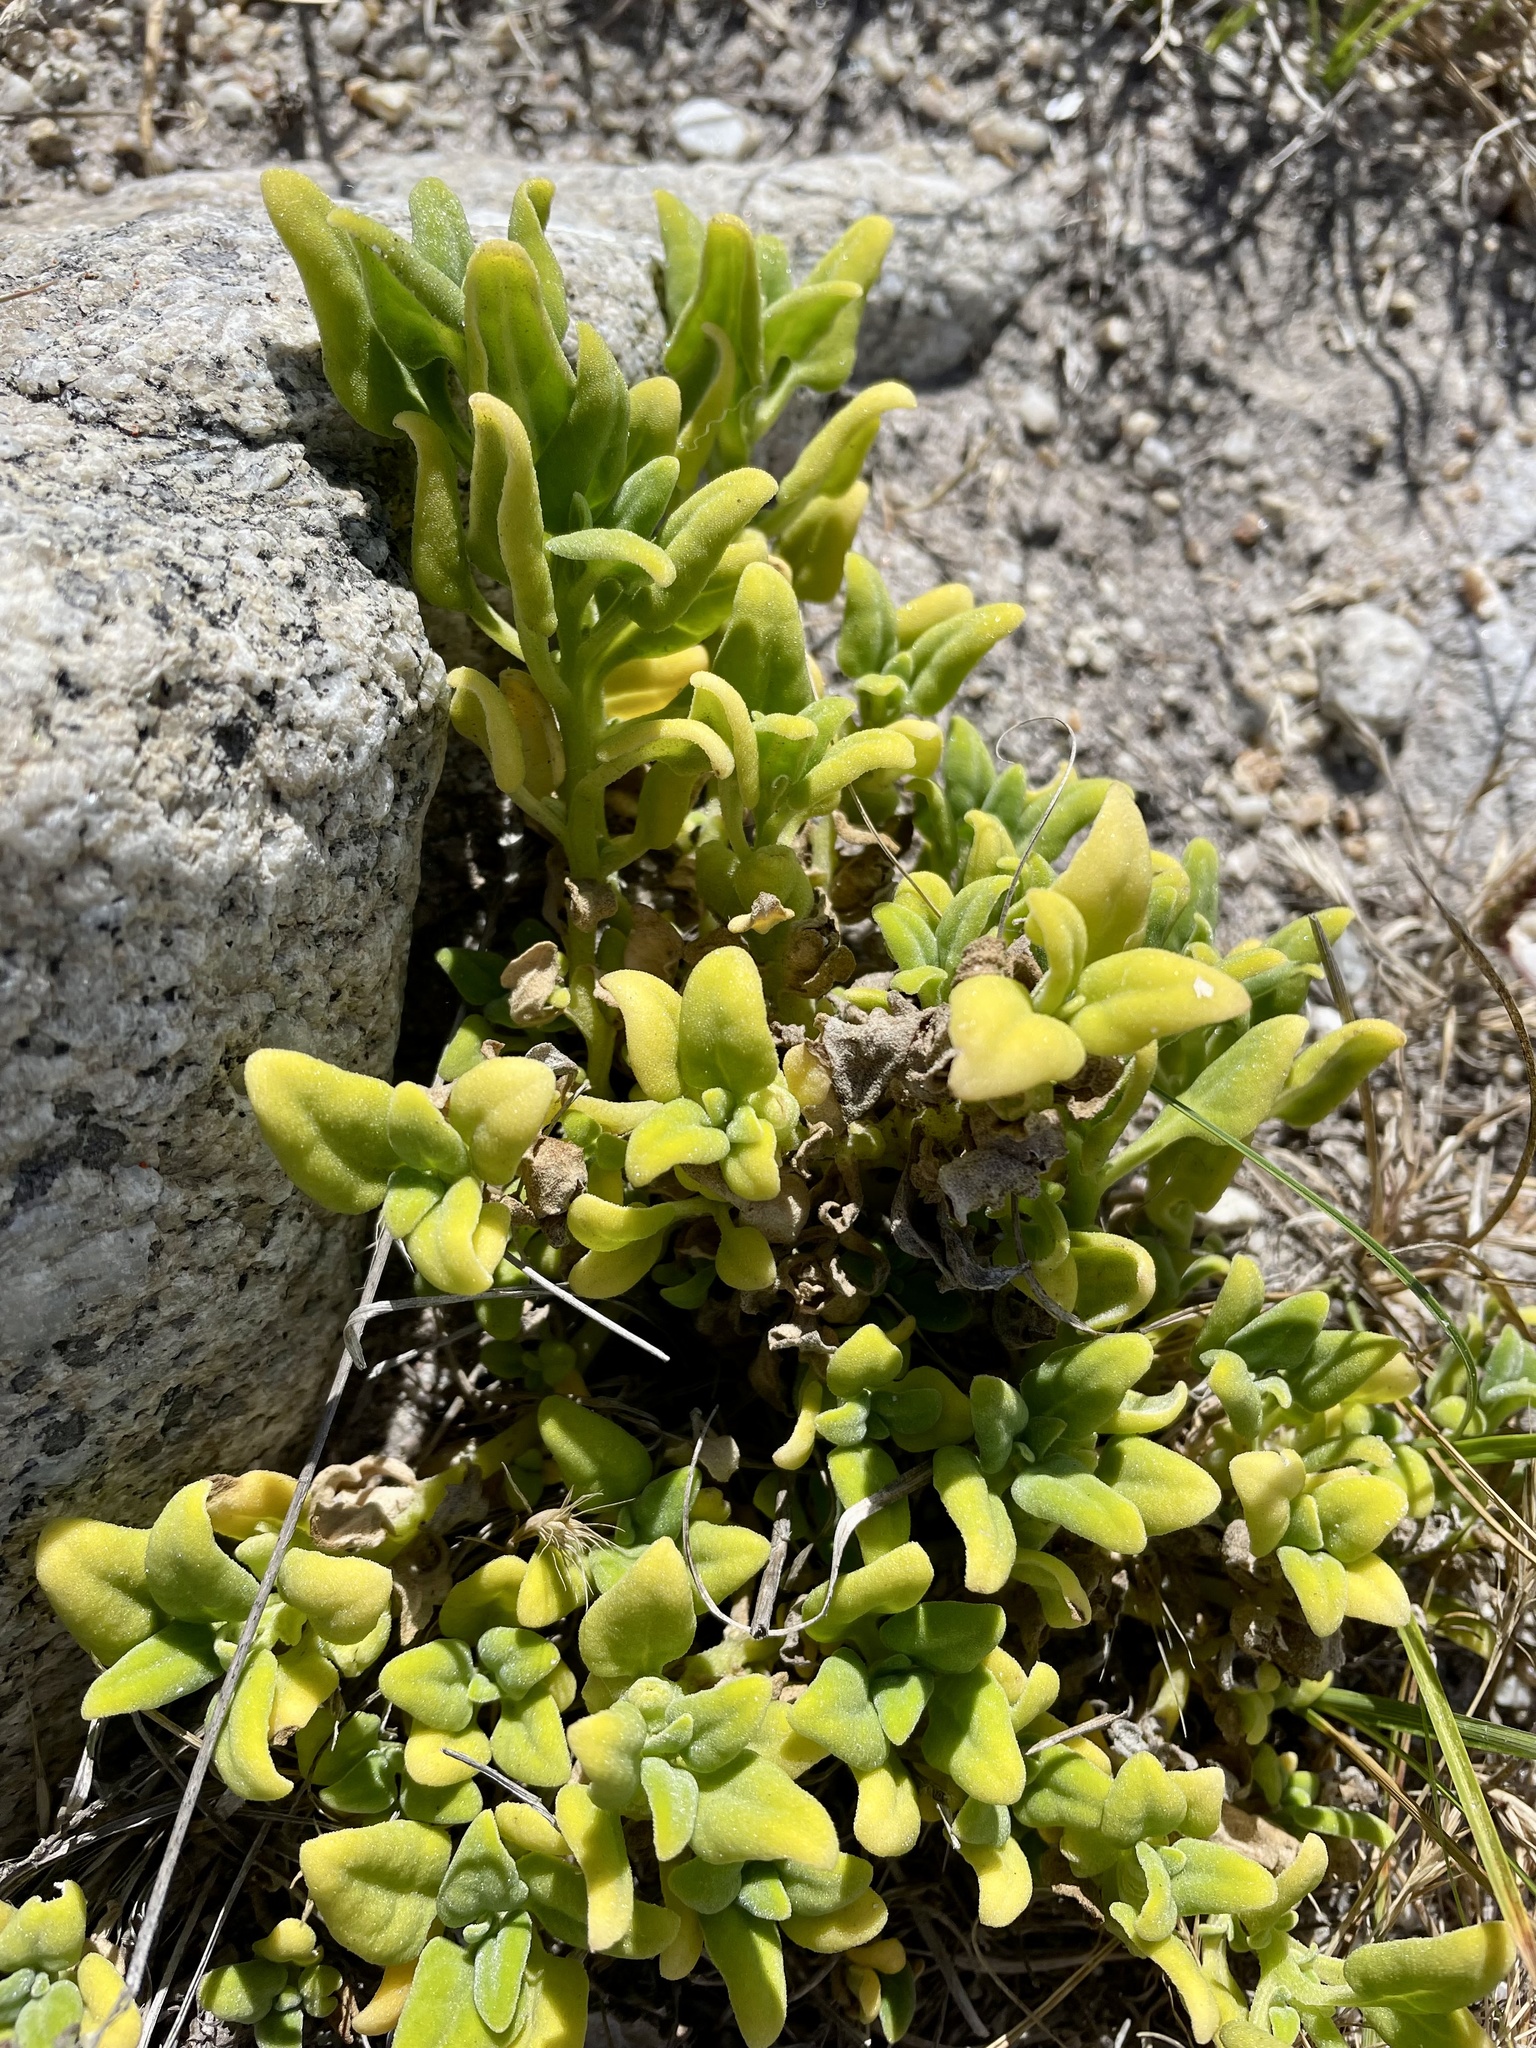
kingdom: Plantae
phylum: Tracheophyta
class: Magnoliopsida
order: Caryophyllales
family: Aizoaceae
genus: Tetragonia
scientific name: Tetragonia tetragonoides
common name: New zealand-spinach
